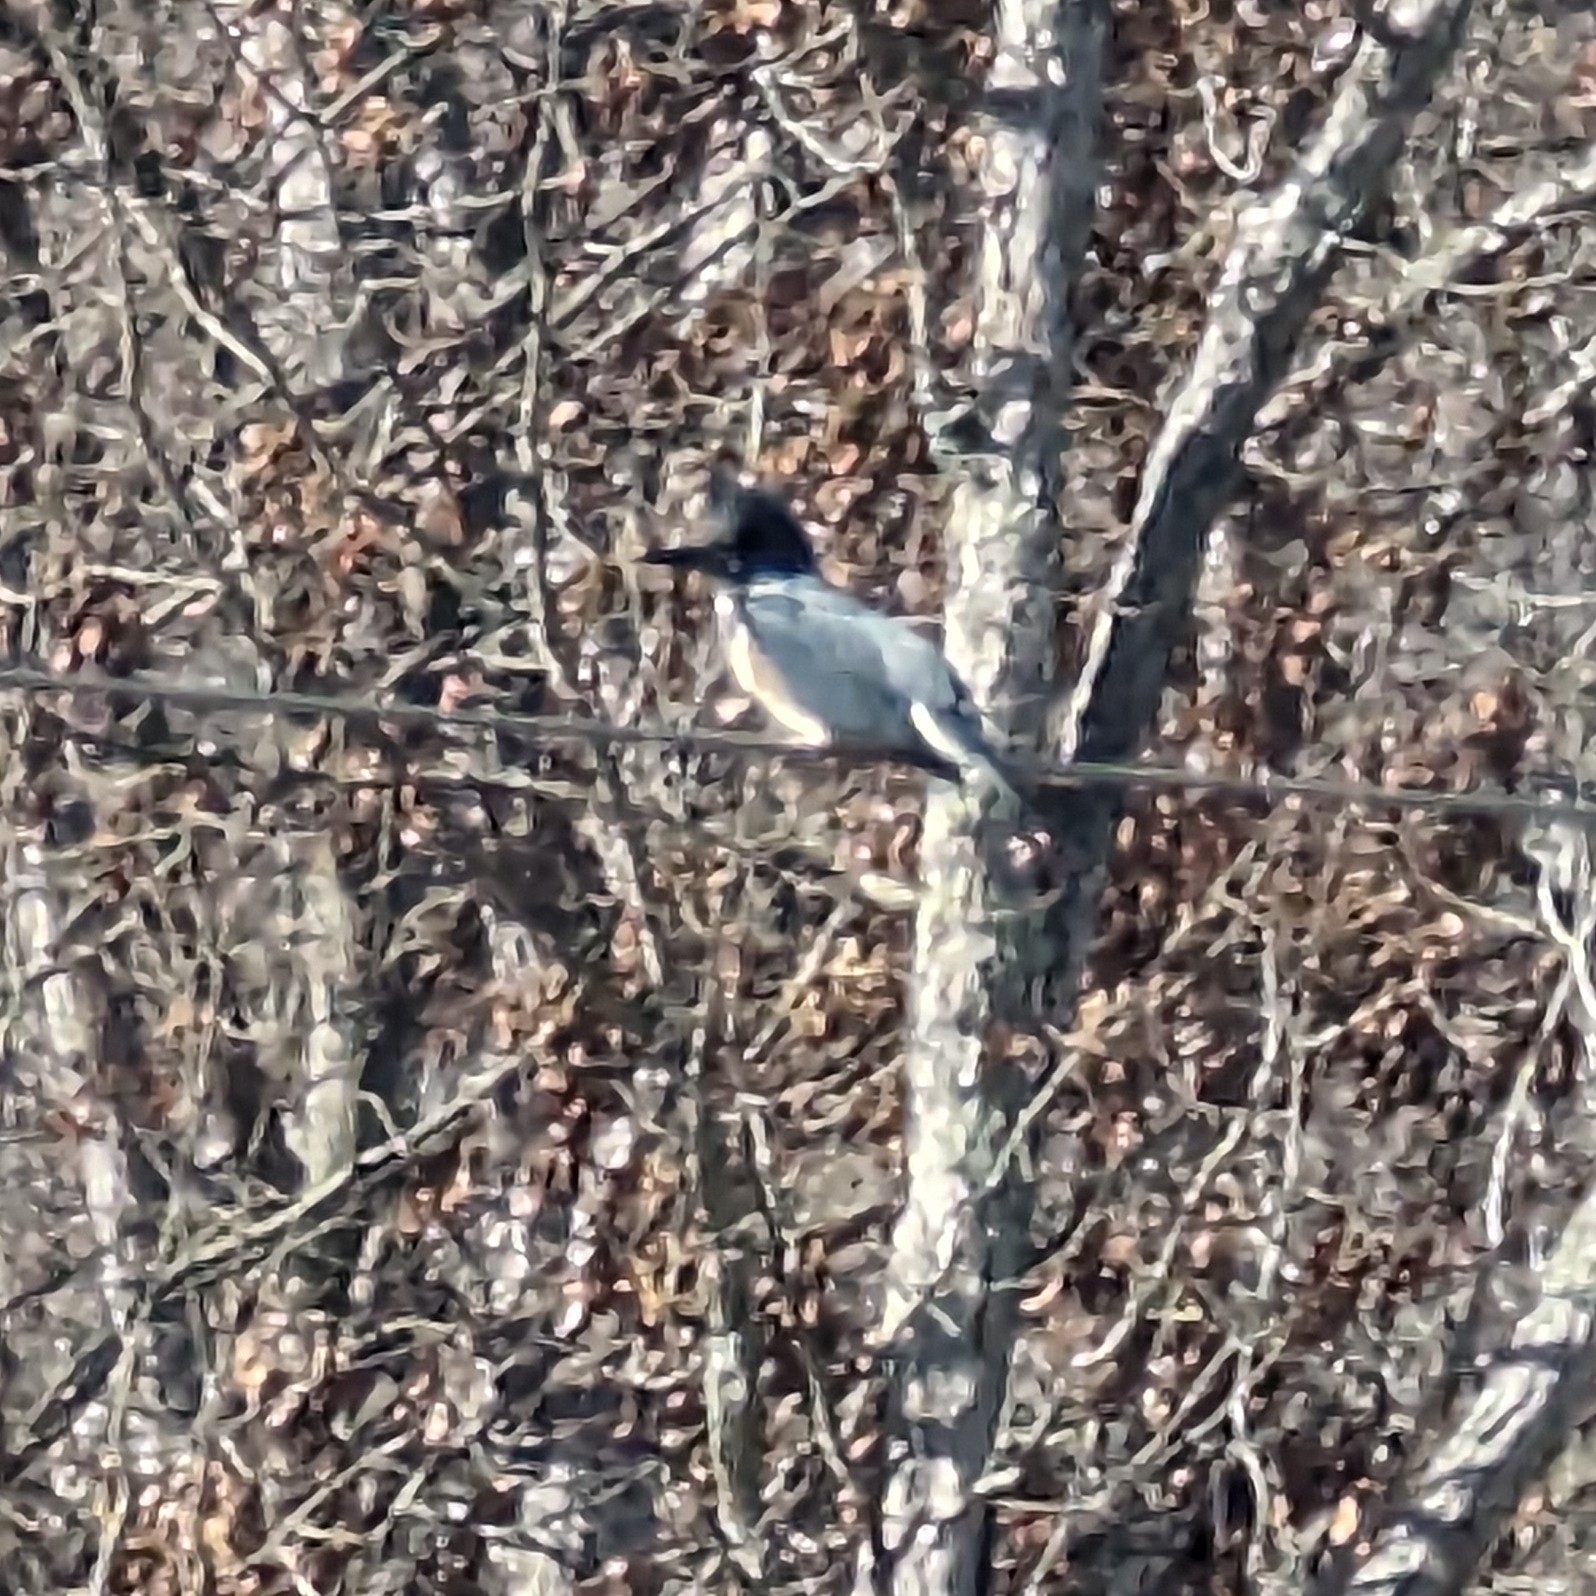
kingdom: Animalia
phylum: Chordata
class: Aves
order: Coraciiformes
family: Alcedinidae
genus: Megaceryle
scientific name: Megaceryle alcyon
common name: Belted kingfisher
